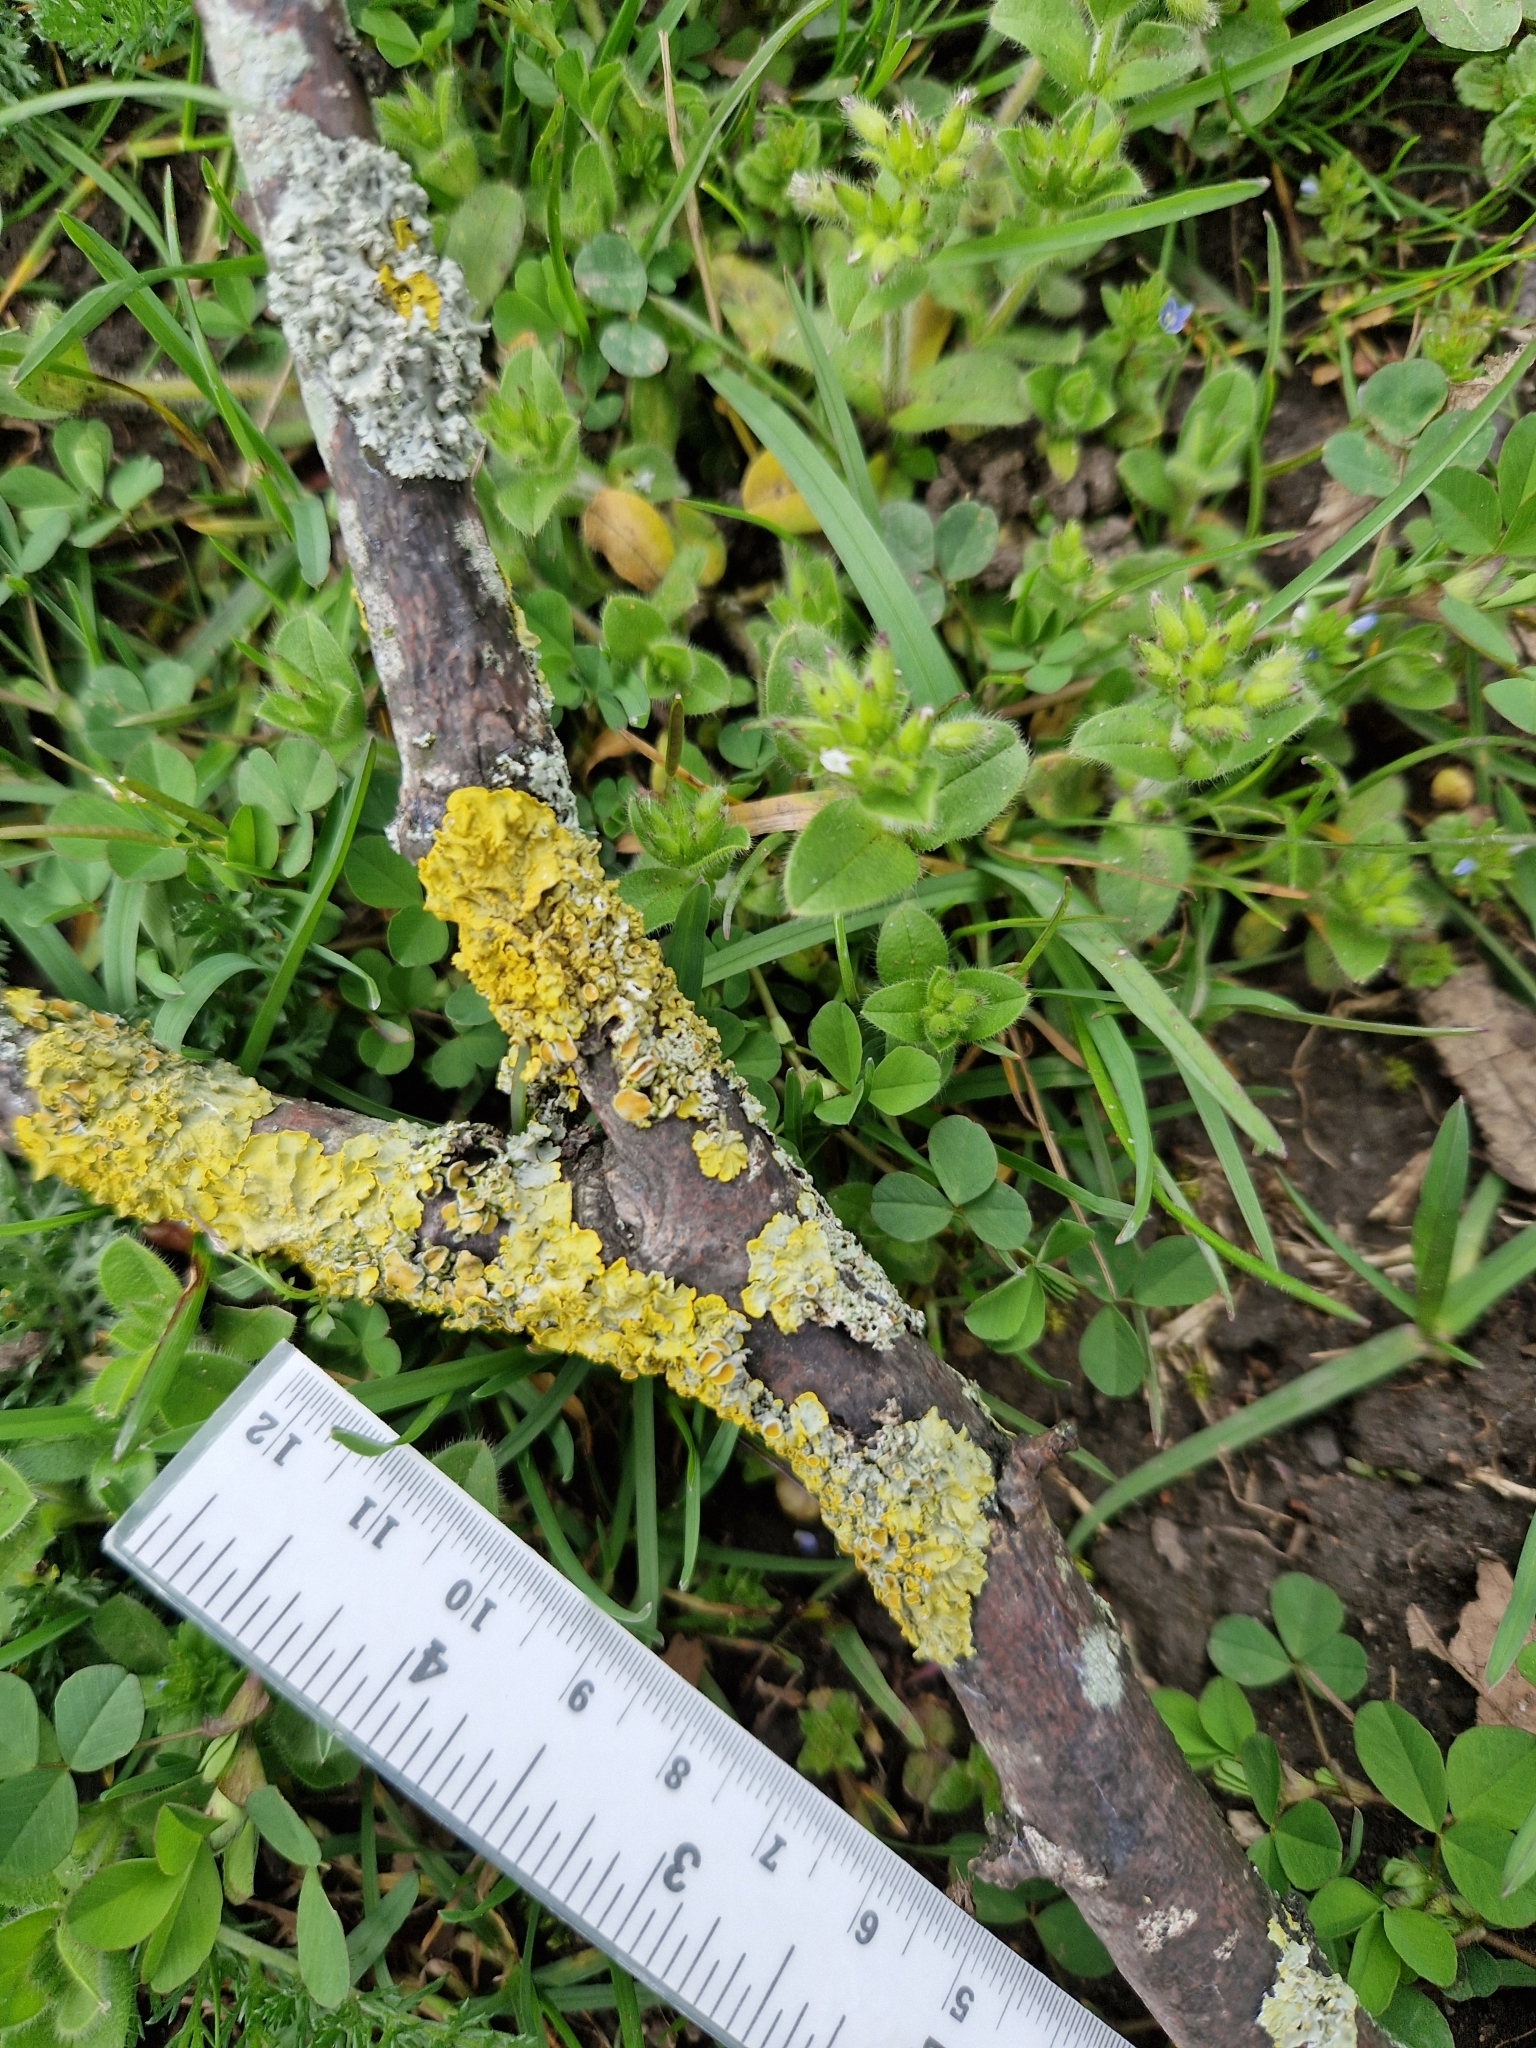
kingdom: Fungi
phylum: Ascomycota
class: Lecanoromycetes
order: Teloschistales
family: Teloschistaceae
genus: Xanthoria
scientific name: Xanthoria parietina
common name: Common orange lichen
